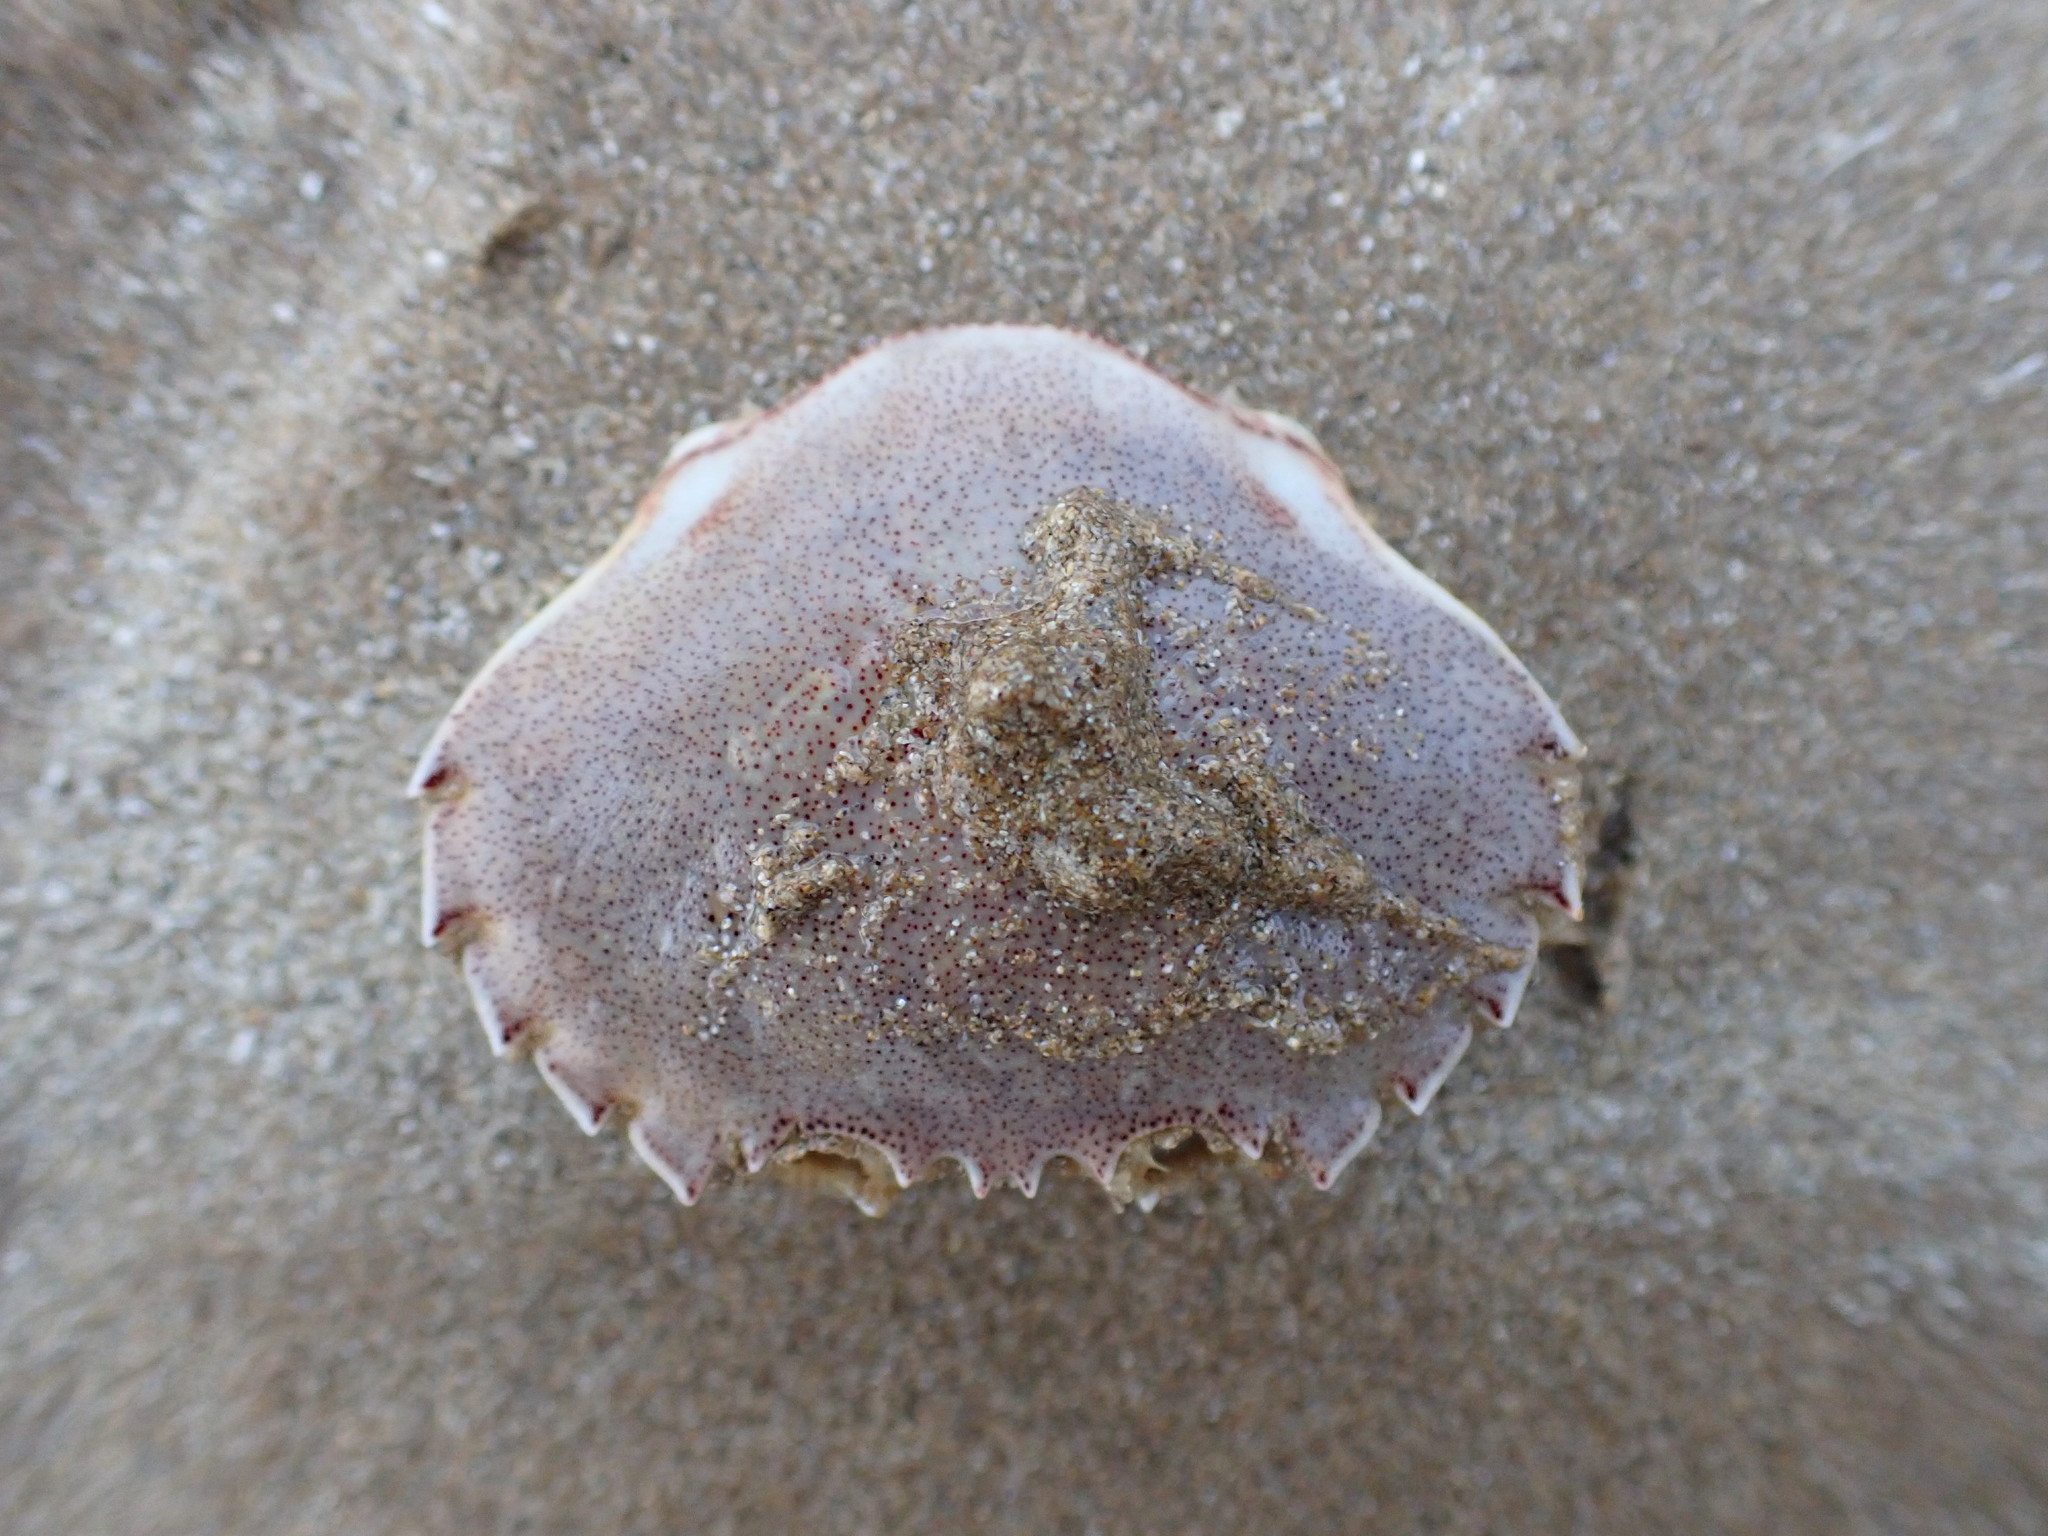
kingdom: Animalia
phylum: Arthropoda
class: Malacostraca
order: Decapoda
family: Ovalipidae
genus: Ovalipes
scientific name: Ovalipes catharus
